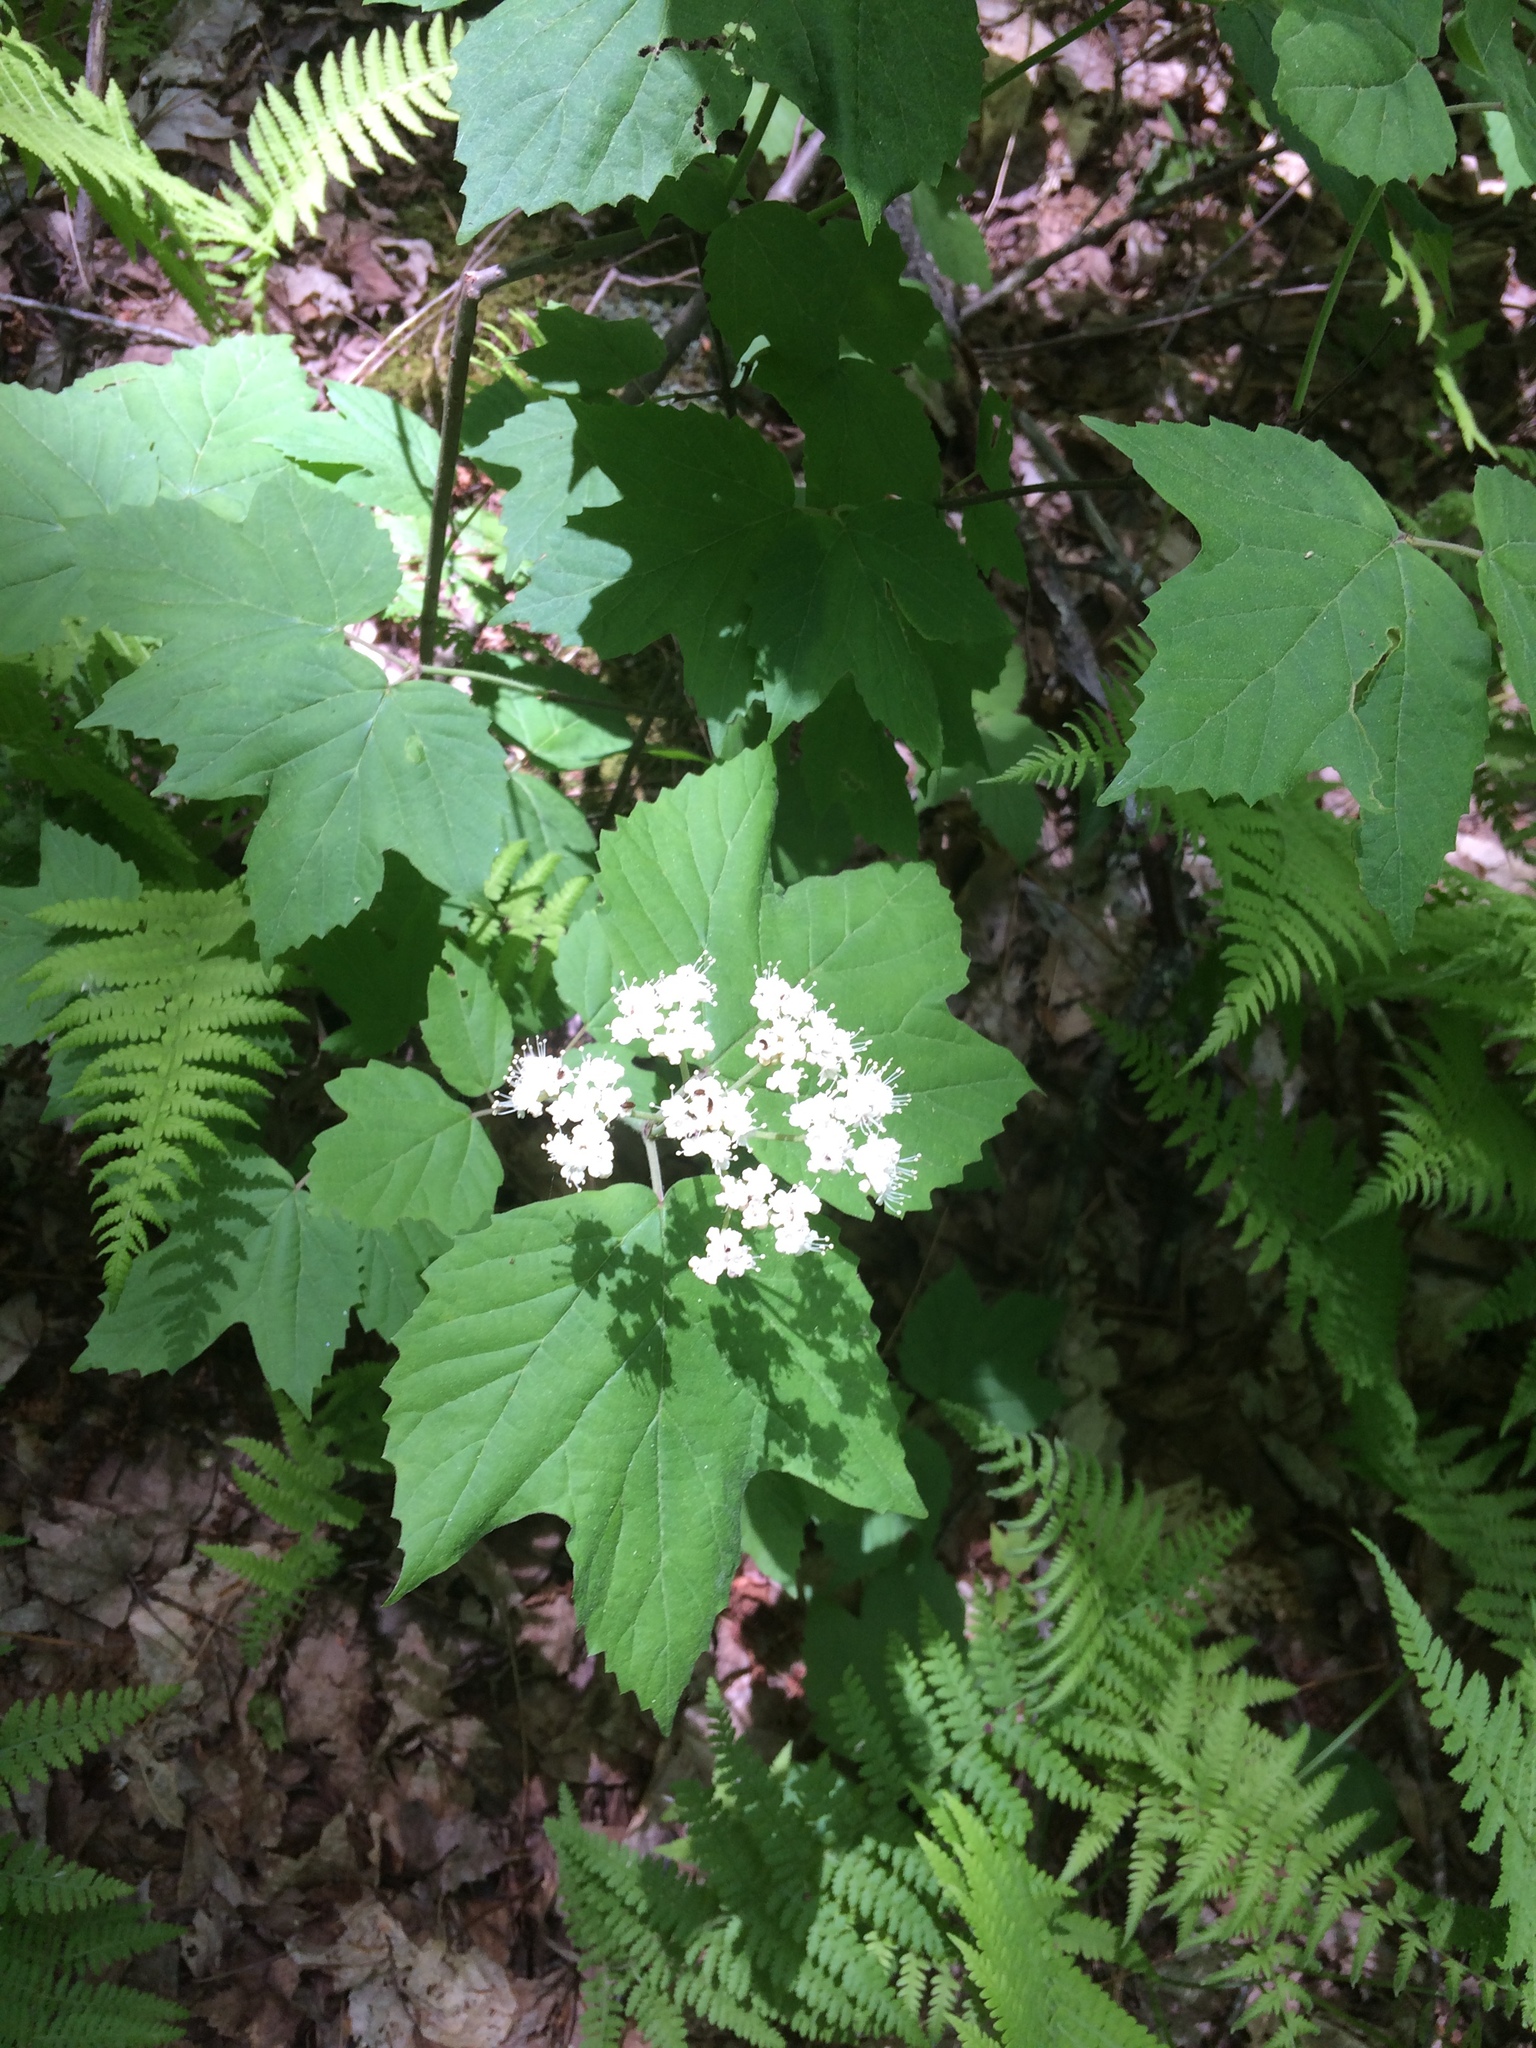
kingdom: Plantae
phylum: Tracheophyta
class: Magnoliopsida
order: Dipsacales
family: Viburnaceae
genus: Viburnum
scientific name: Viburnum acerifolium
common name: Dockmackie
